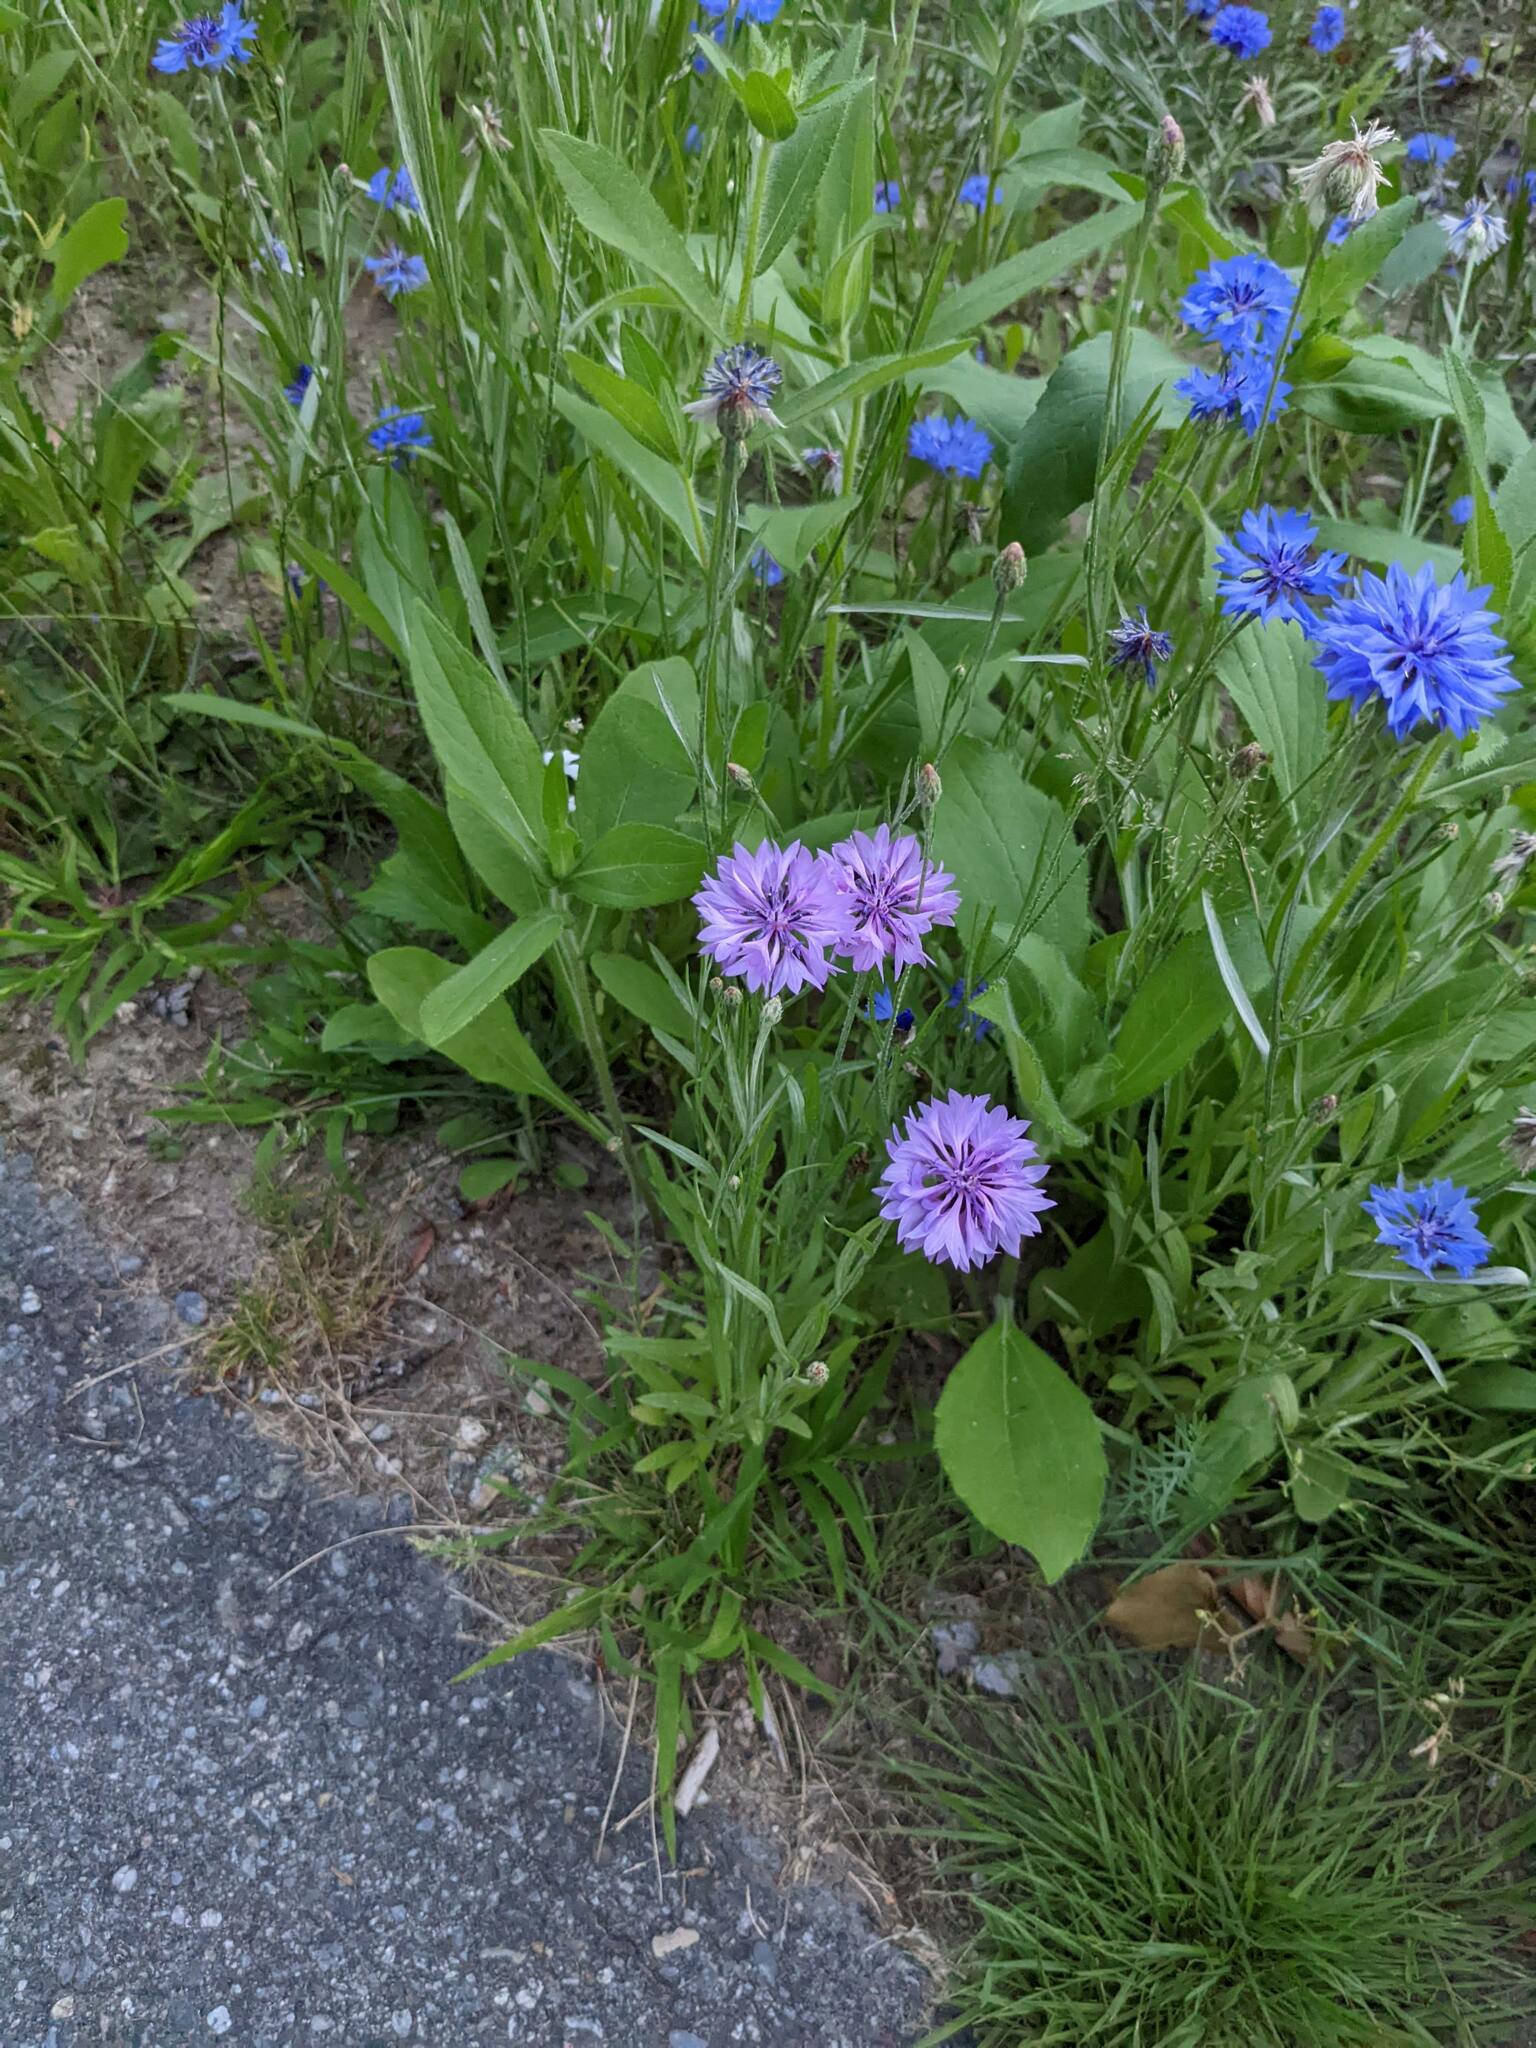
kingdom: Plantae
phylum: Tracheophyta
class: Magnoliopsida
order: Asterales
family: Asteraceae
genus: Centaurea
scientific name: Centaurea cyanus
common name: Cornflower
